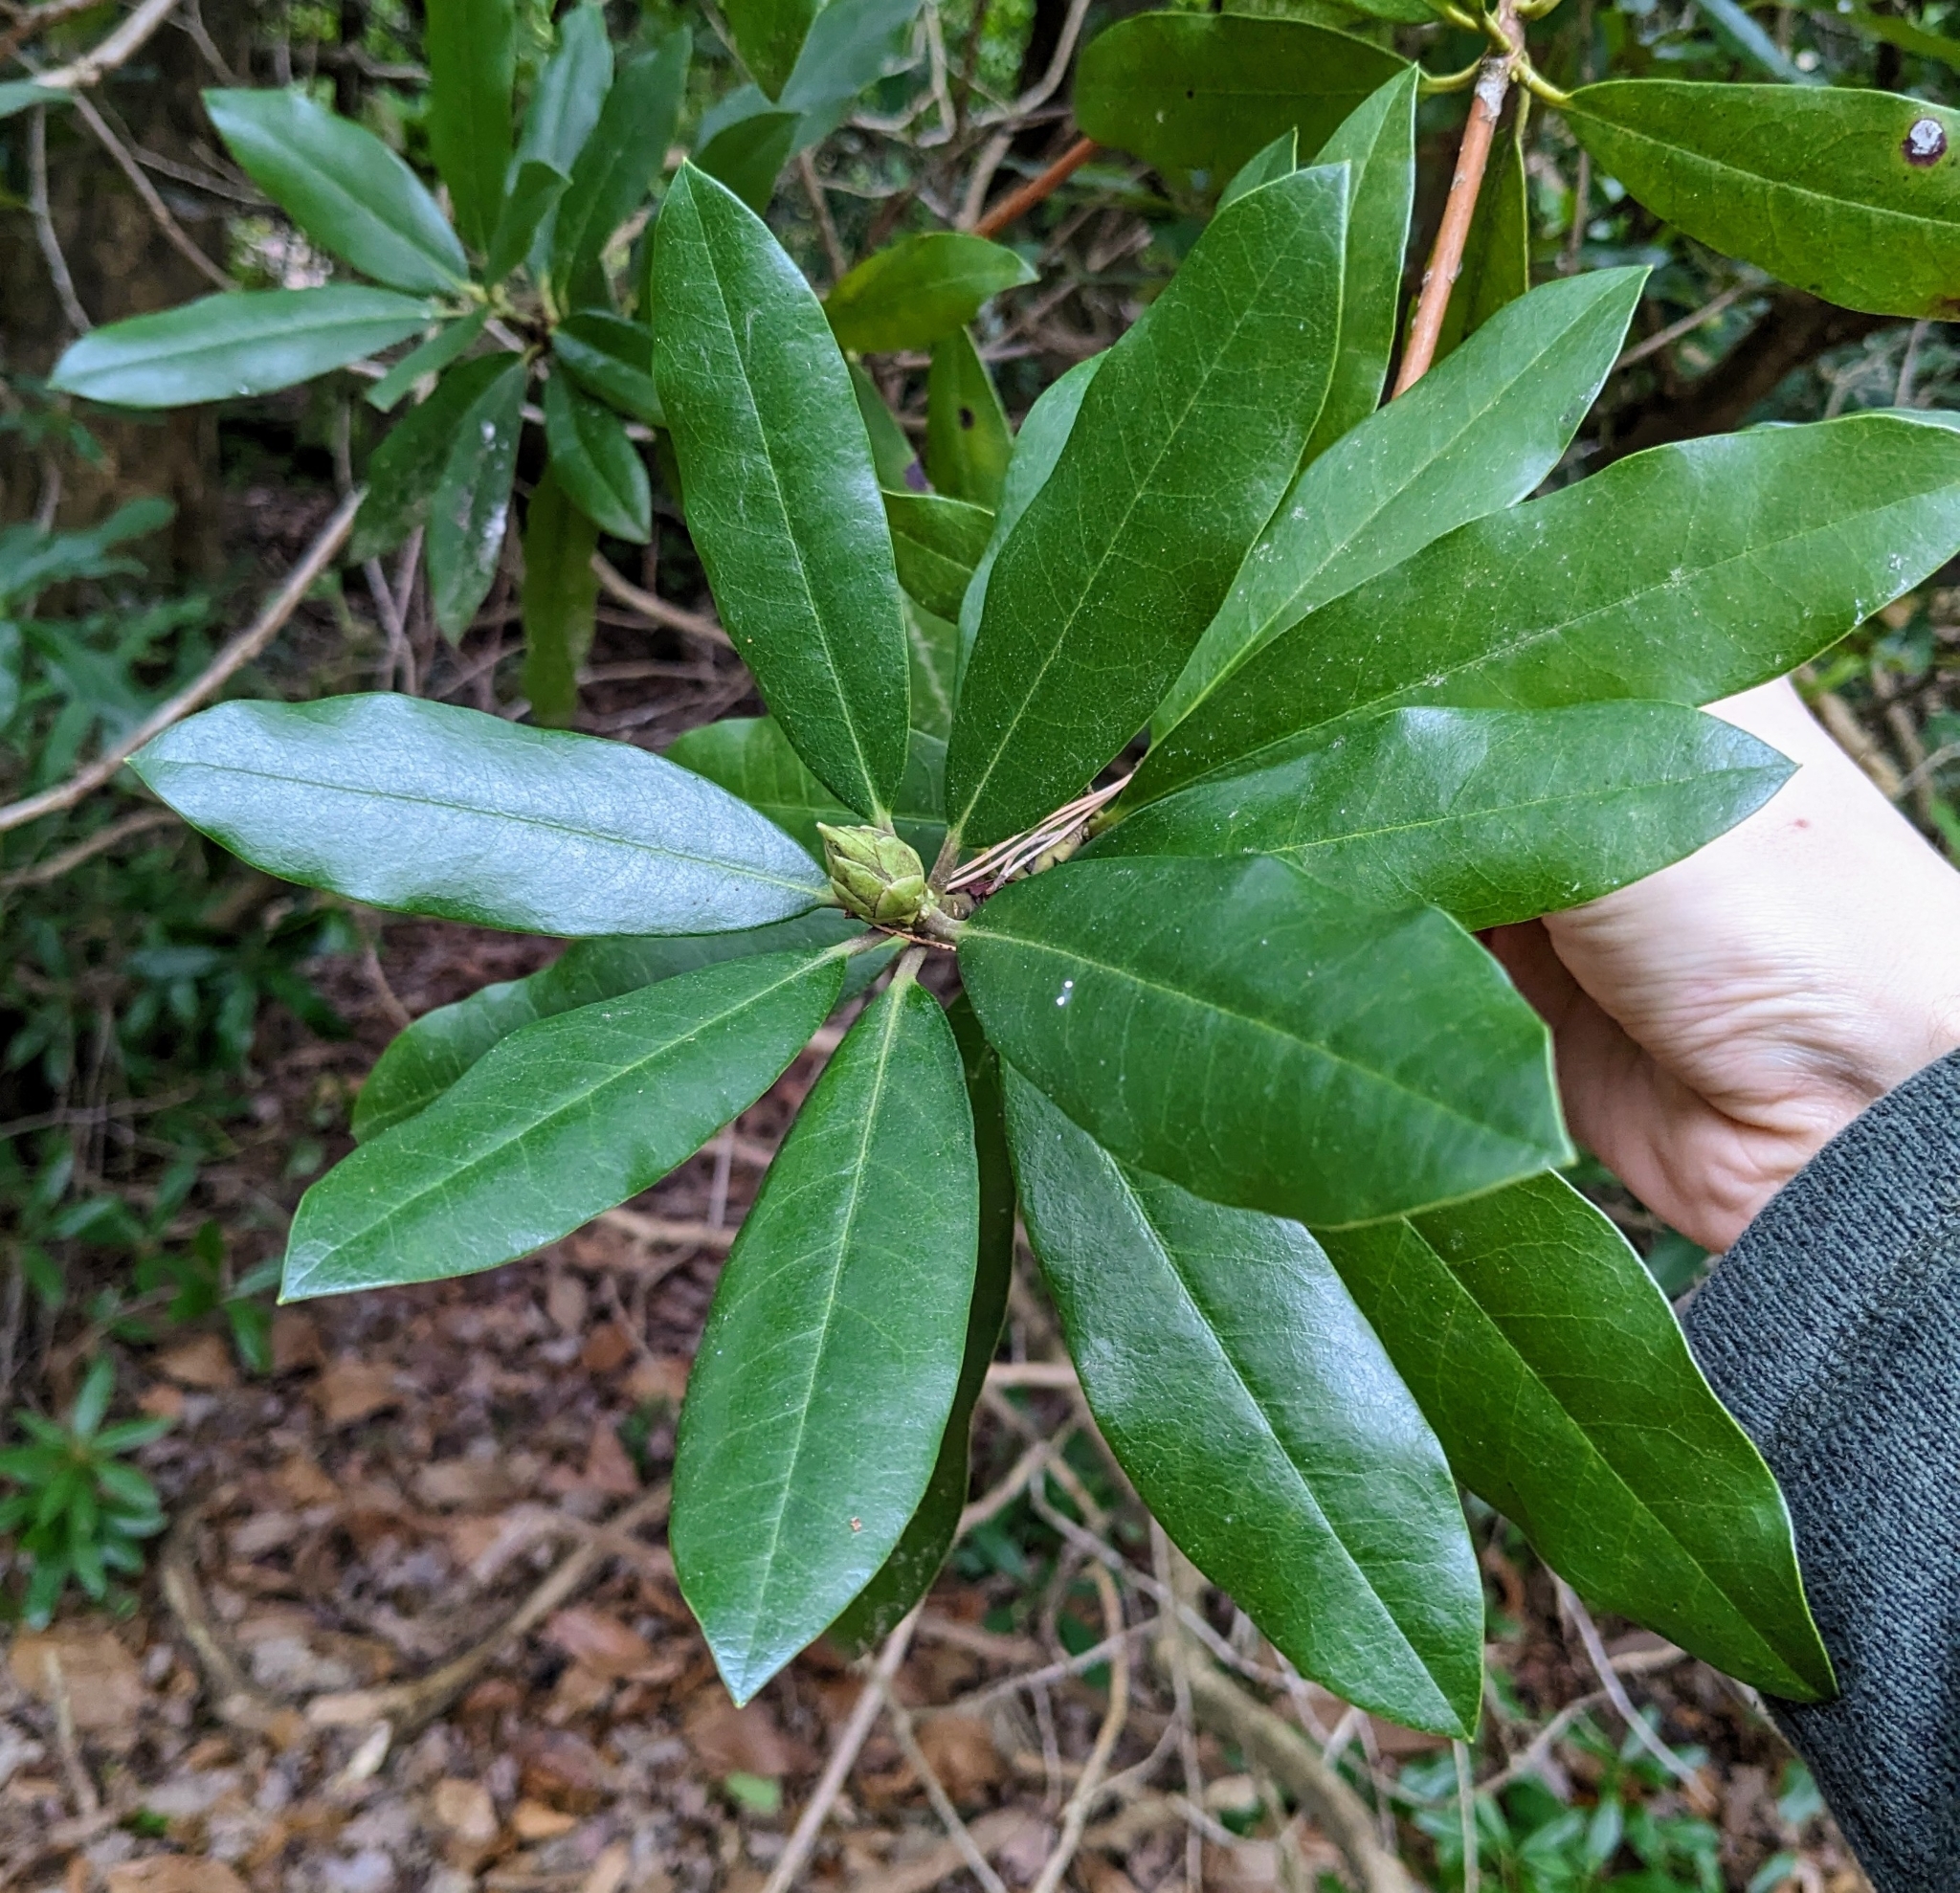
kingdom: Plantae
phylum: Tracheophyta
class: Magnoliopsida
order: Ericales
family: Ericaceae
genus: Rhododendron
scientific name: Rhododendron ponticum
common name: Rhododendron
